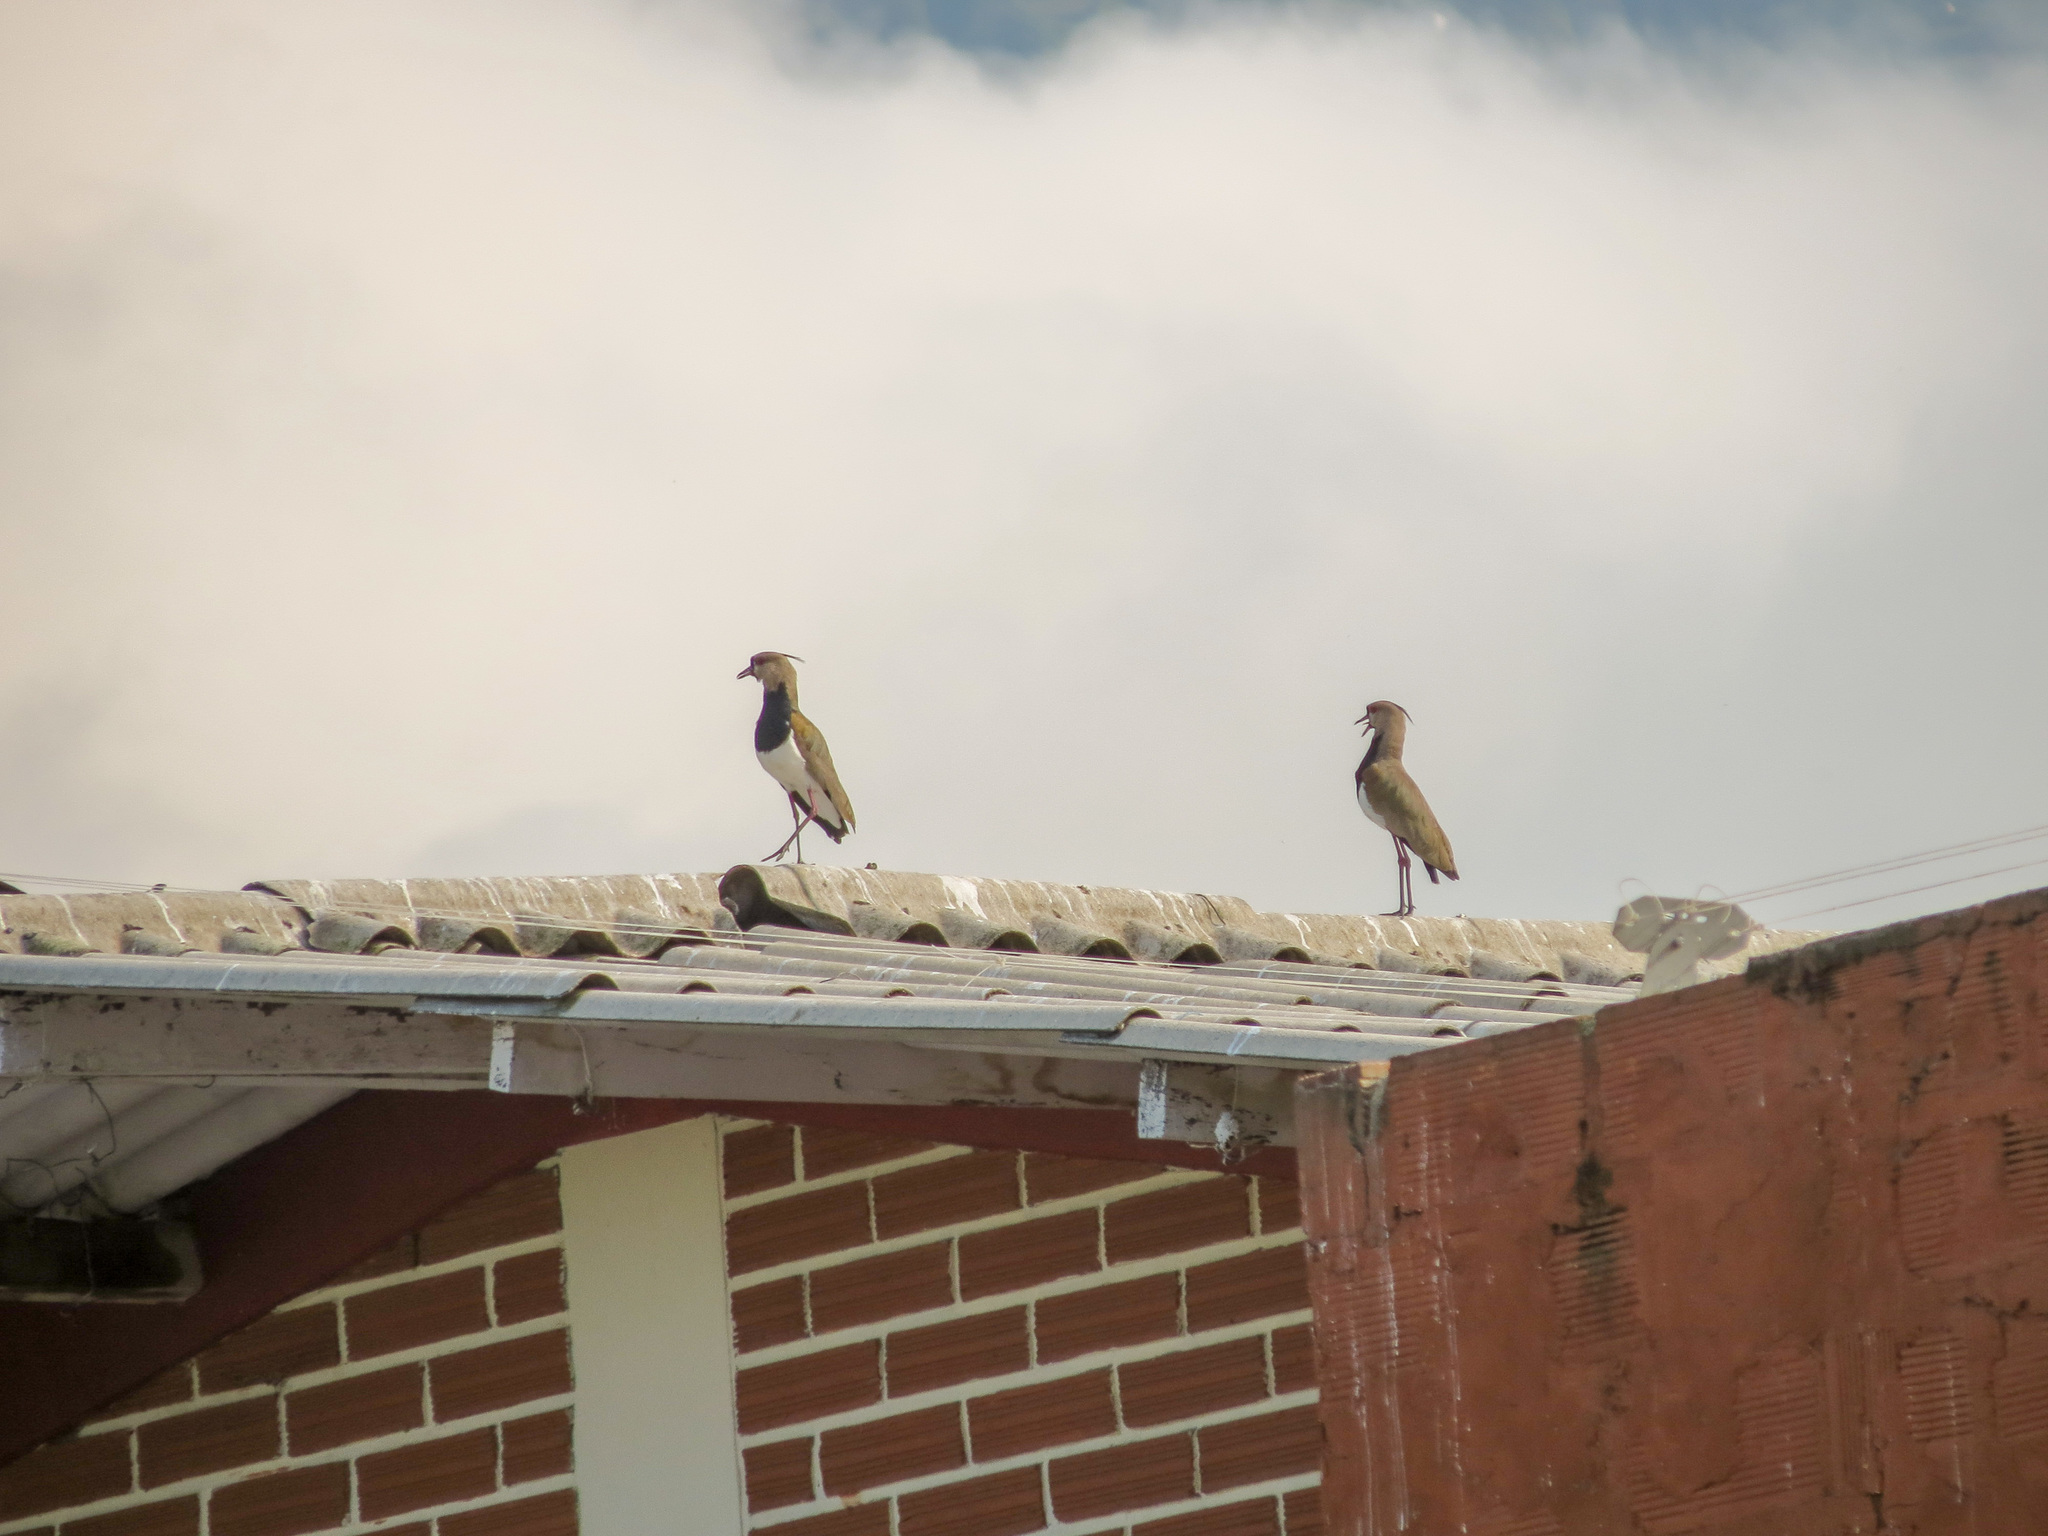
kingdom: Animalia
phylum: Chordata
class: Aves
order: Charadriiformes
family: Charadriidae
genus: Vanellus
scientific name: Vanellus chilensis
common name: Southern lapwing
